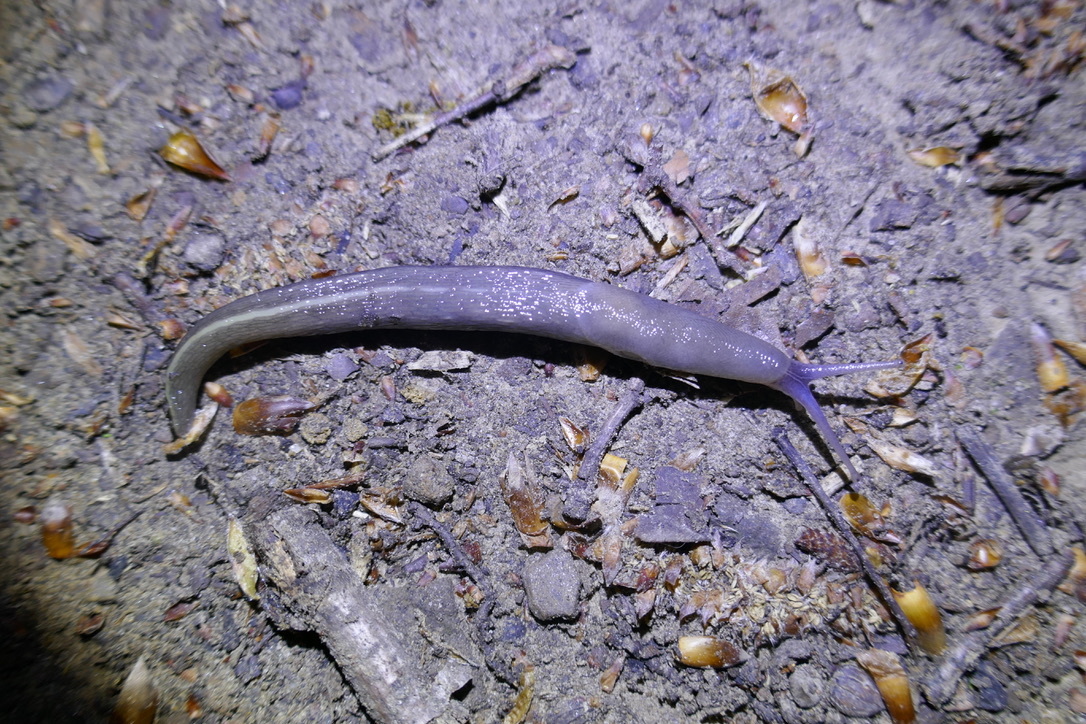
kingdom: Animalia
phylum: Mollusca
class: Gastropoda
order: Stylommatophora
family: Limacidae
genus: Limax
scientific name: Limax cinereoniger
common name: Ash-black slug
